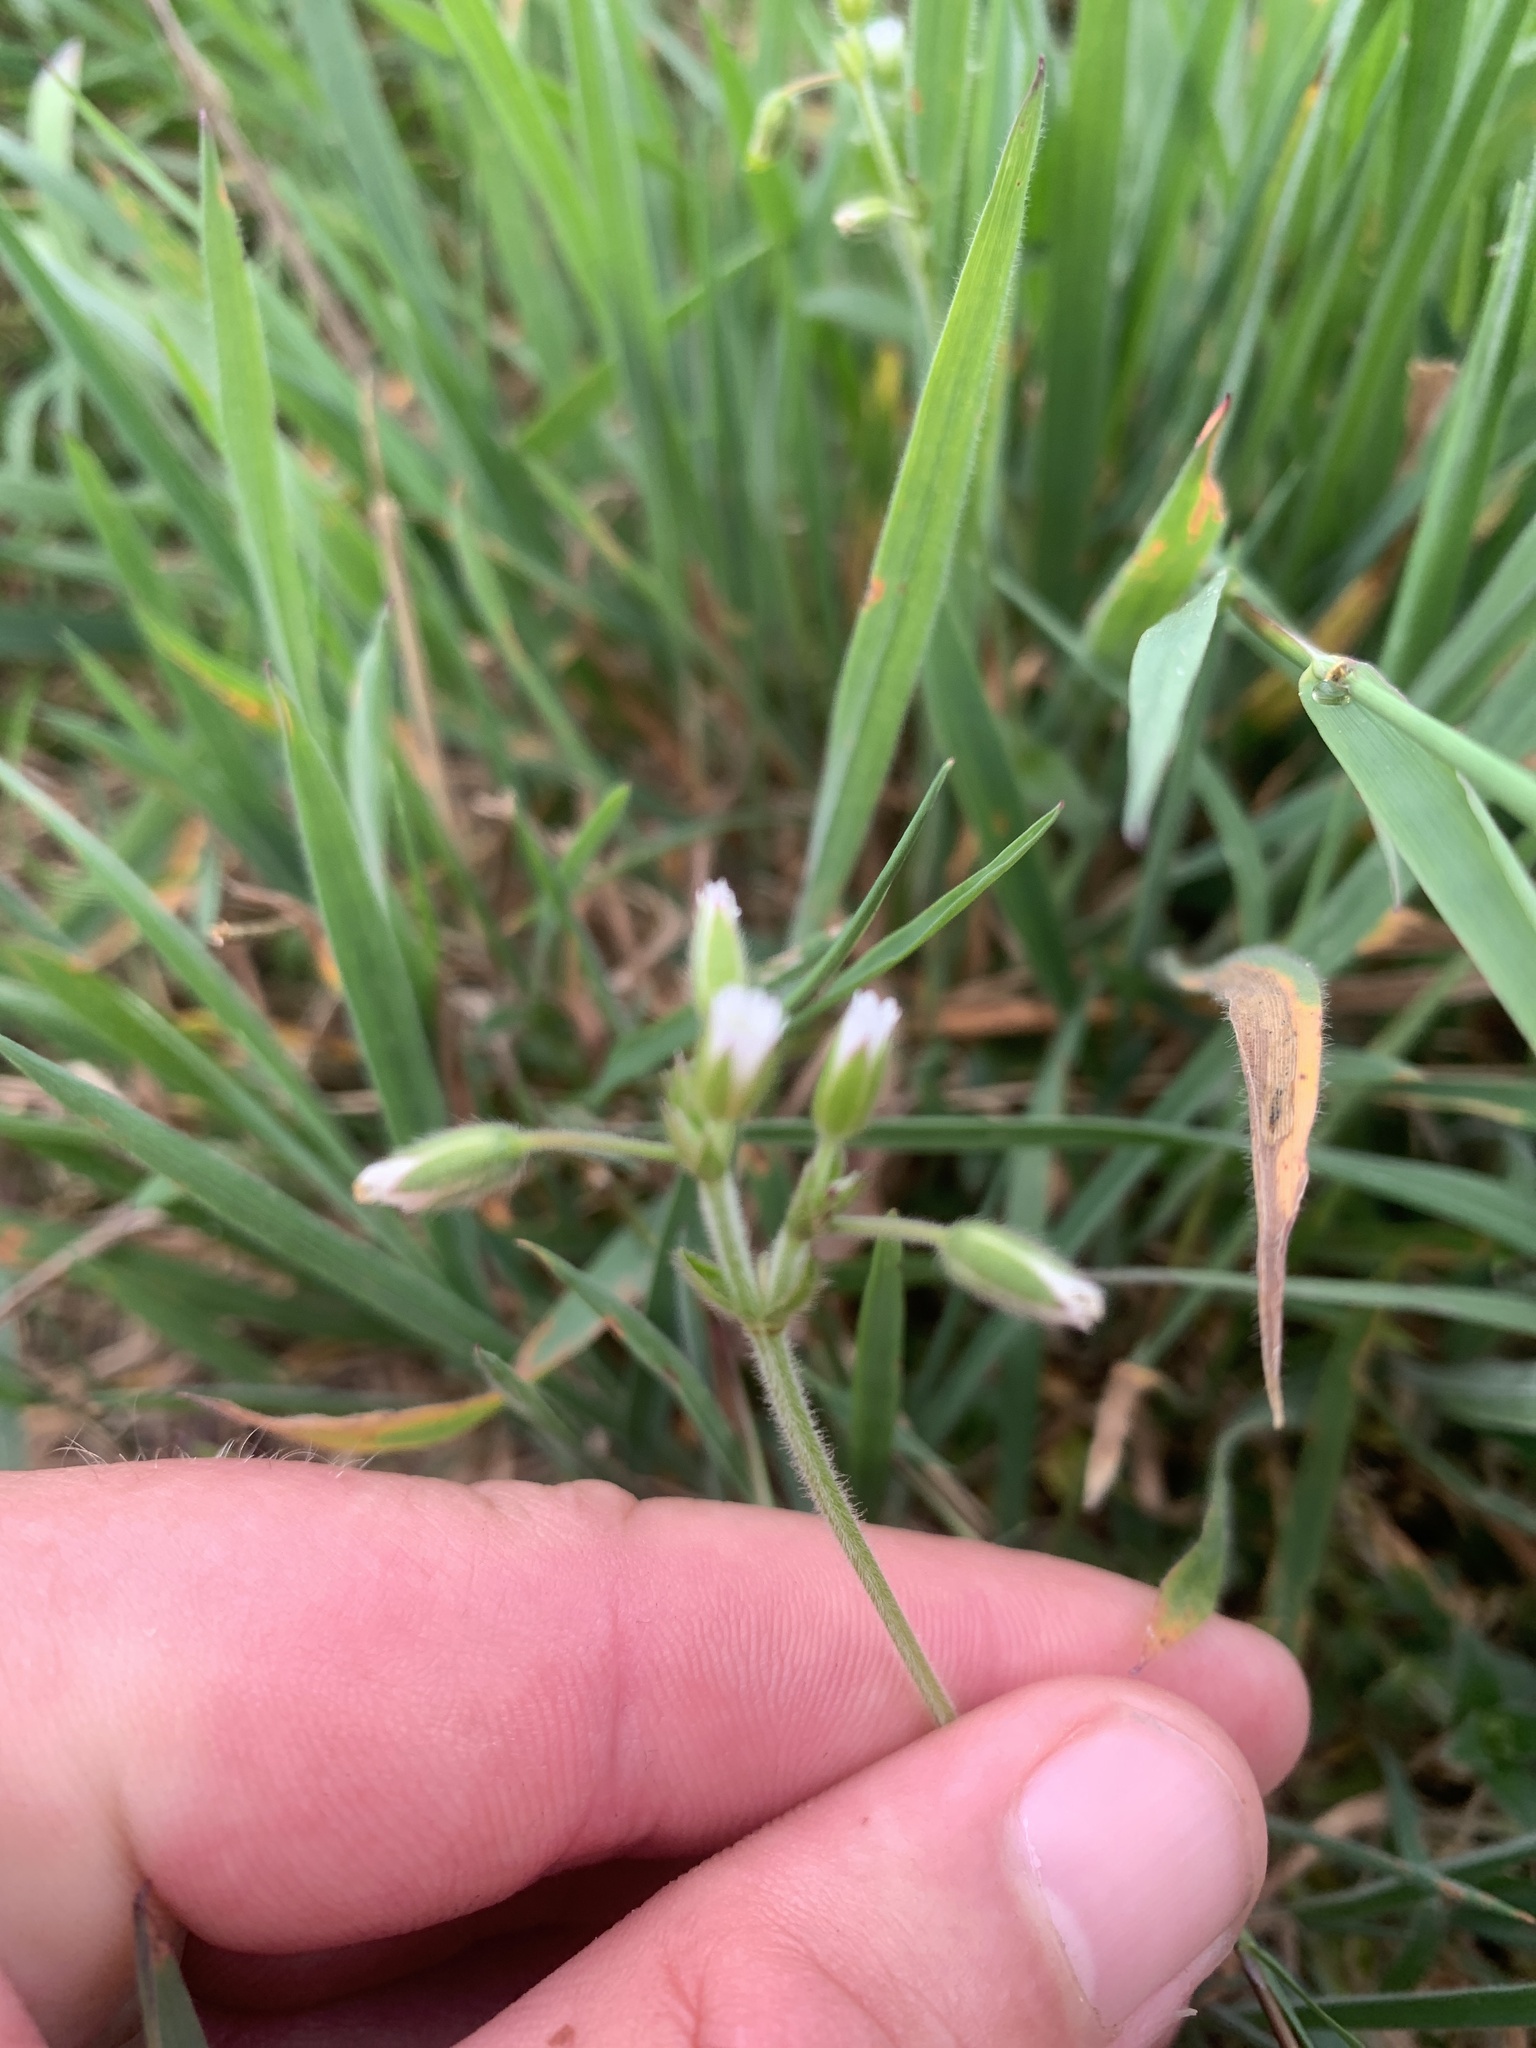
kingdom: Plantae
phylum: Tracheophyta
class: Magnoliopsida
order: Caryophyllales
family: Caryophyllaceae
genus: Cerastium
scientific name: Cerastium glomeratum
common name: Sticky chickweed
